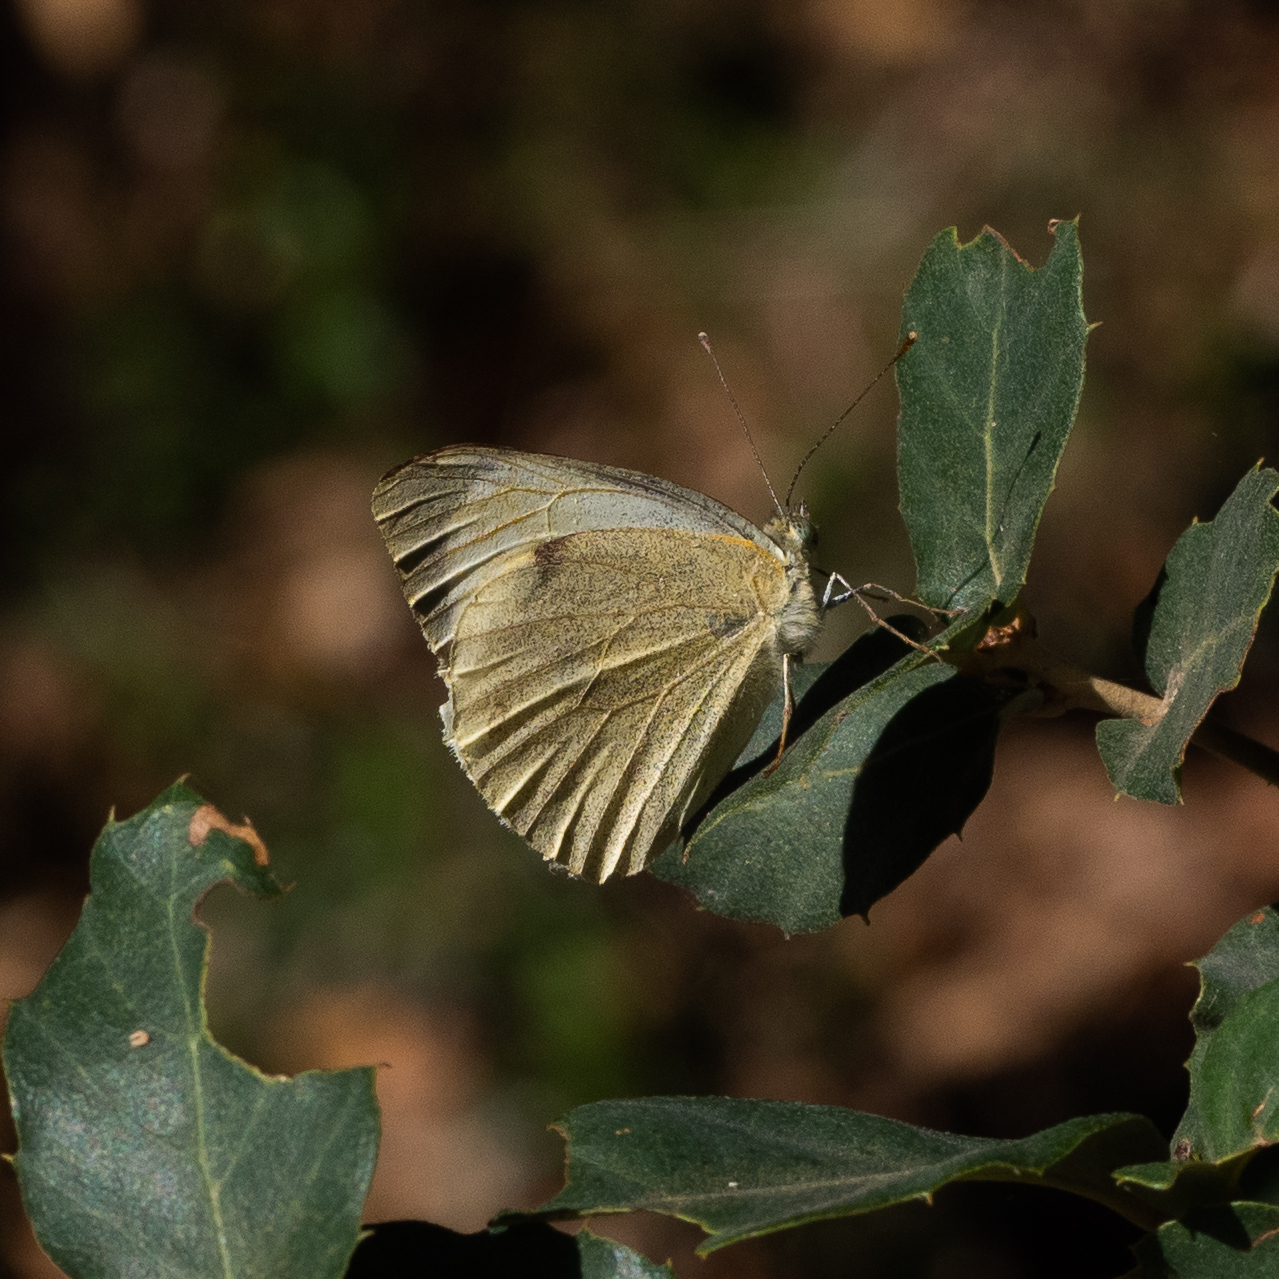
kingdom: Animalia
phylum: Arthropoda
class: Insecta
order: Lepidoptera
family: Pieridae
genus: Pieris
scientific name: Pieris brassicae
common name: Large white
